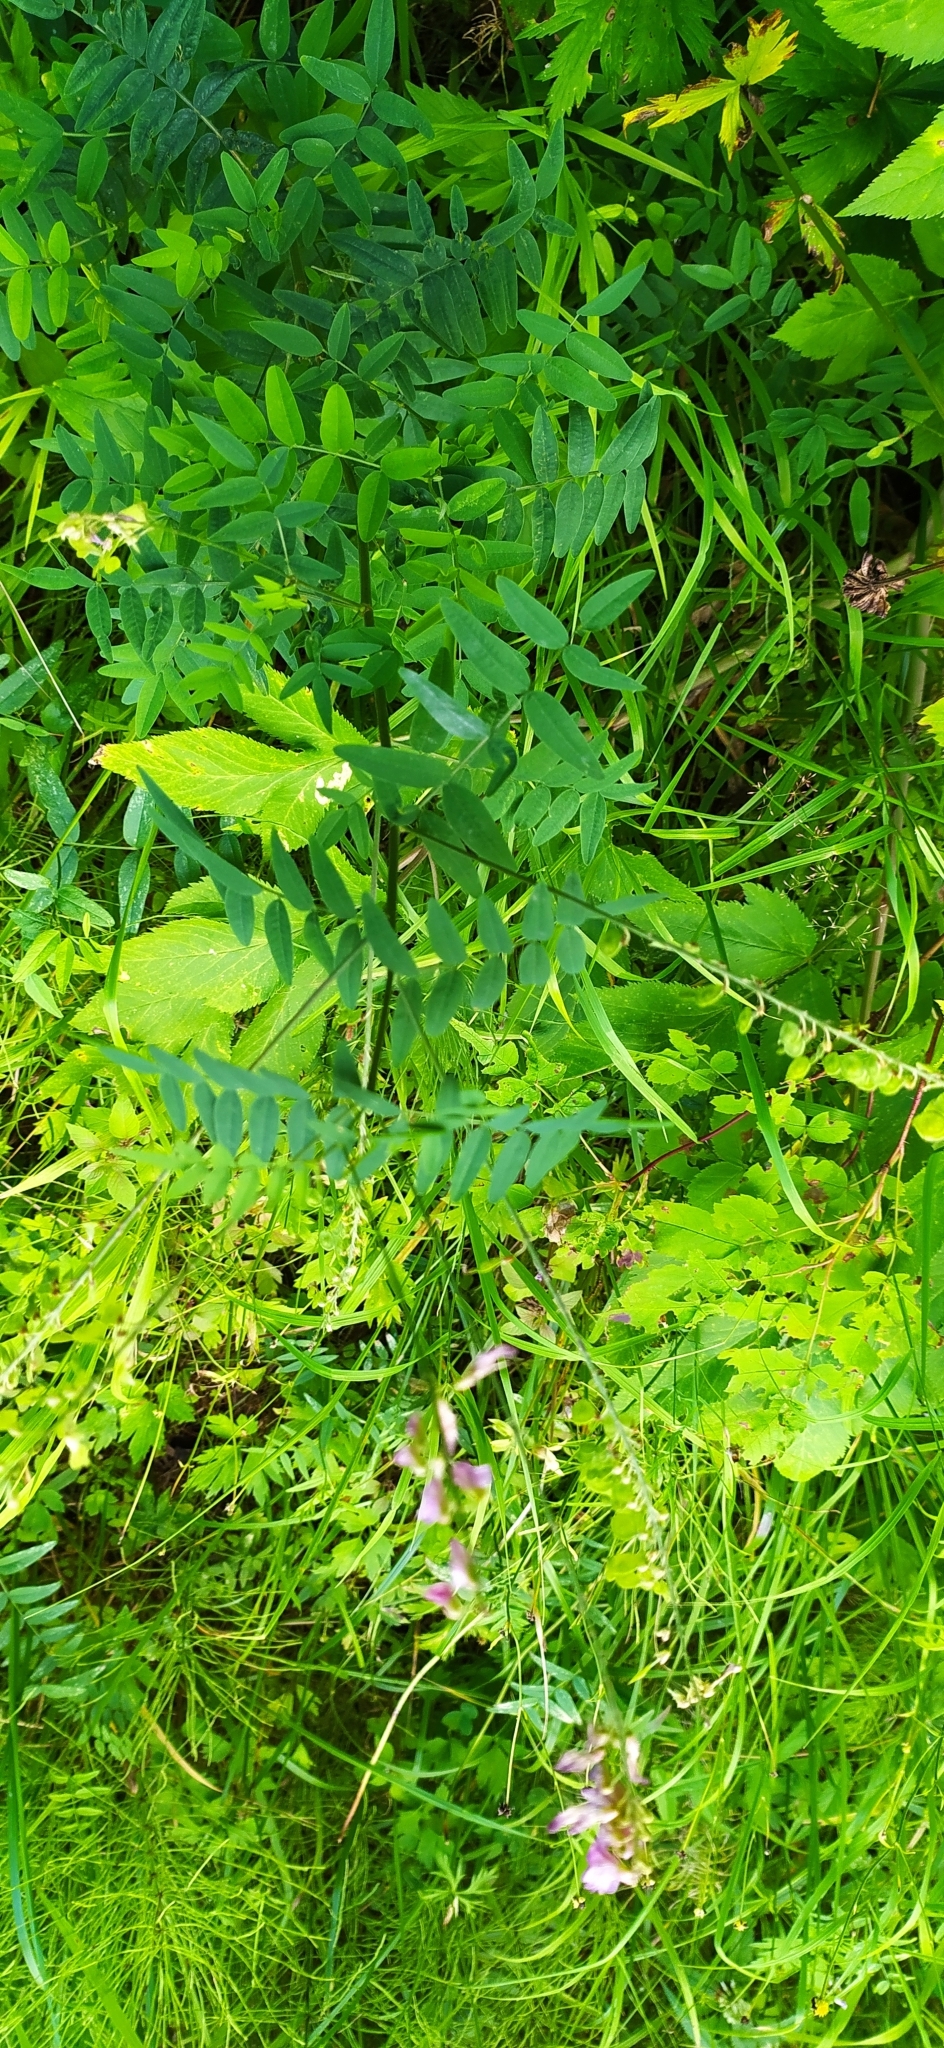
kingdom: Plantae
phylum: Tracheophyta
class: Magnoliopsida
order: Fabales
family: Fabaceae
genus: Hedysarum
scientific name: Hedysarum alpinum
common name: Alpine sweet-vetch
